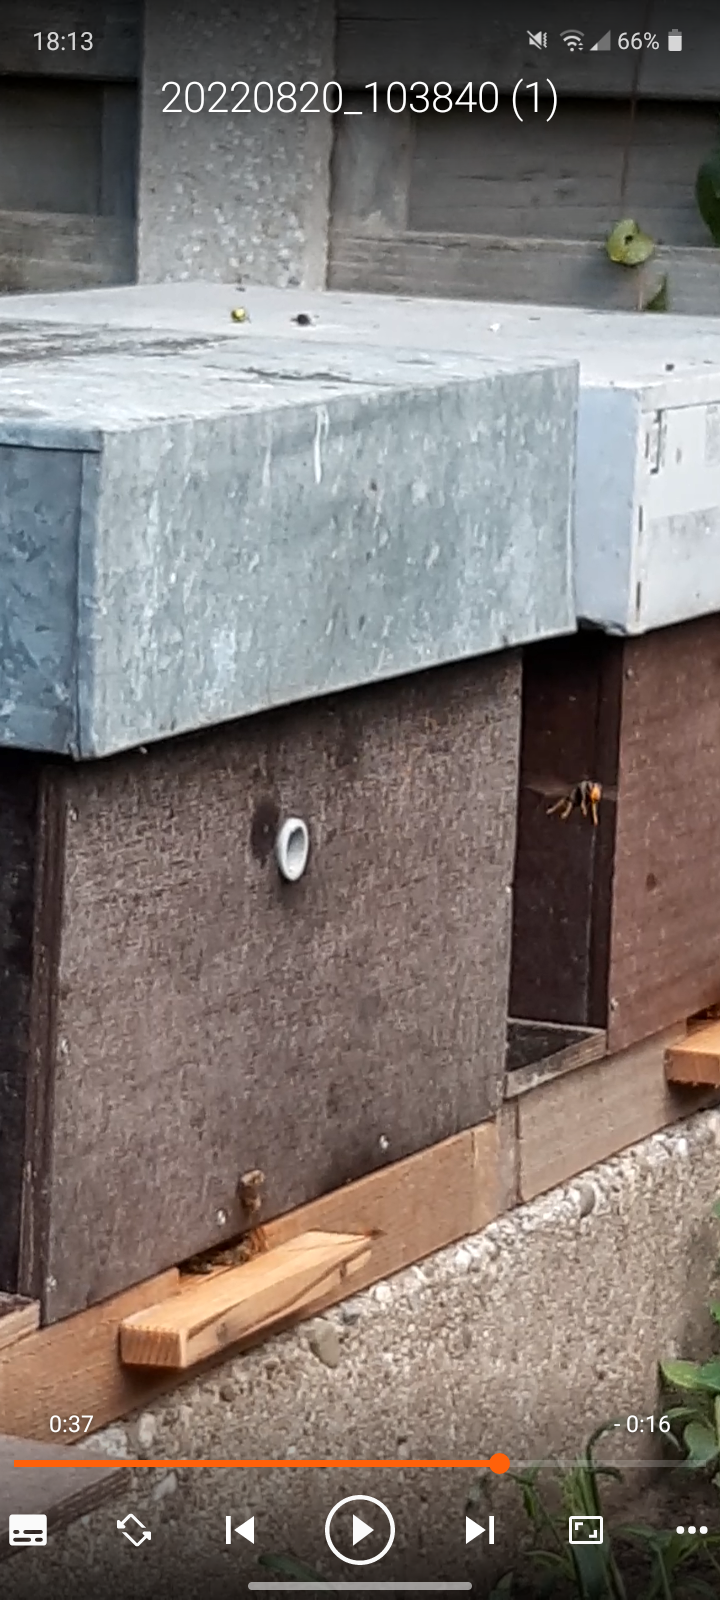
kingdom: Animalia
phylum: Arthropoda
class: Insecta
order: Hymenoptera
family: Vespidae
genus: Vespa
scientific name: Vespa velutina
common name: Asian hornet
